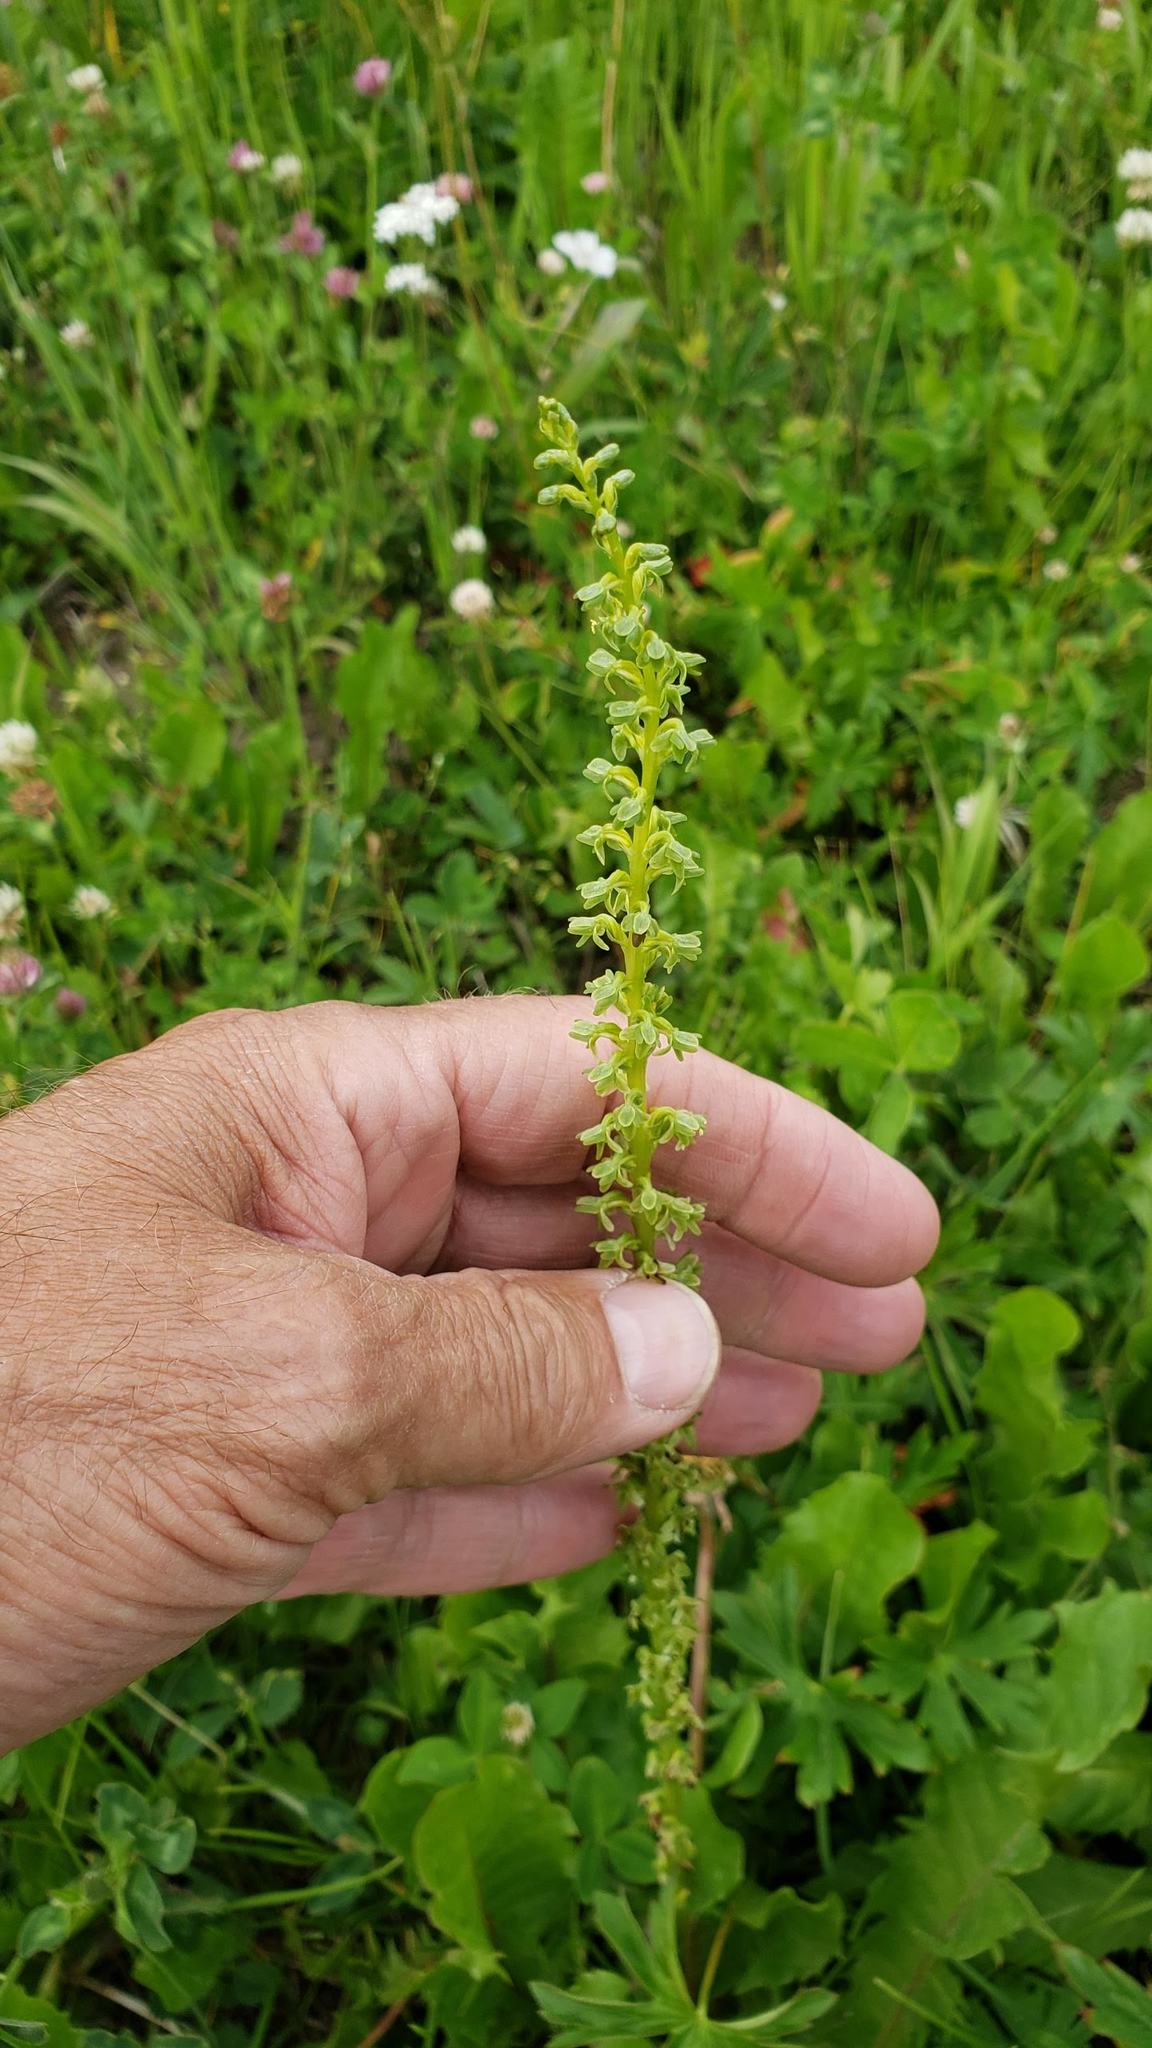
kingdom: Plantae
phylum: Tracheophyta
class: Liliopsida
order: Asparagales
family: Orchidaceae
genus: Platanthera
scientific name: Platanthera unalascensis
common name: Alaska bog orchid
